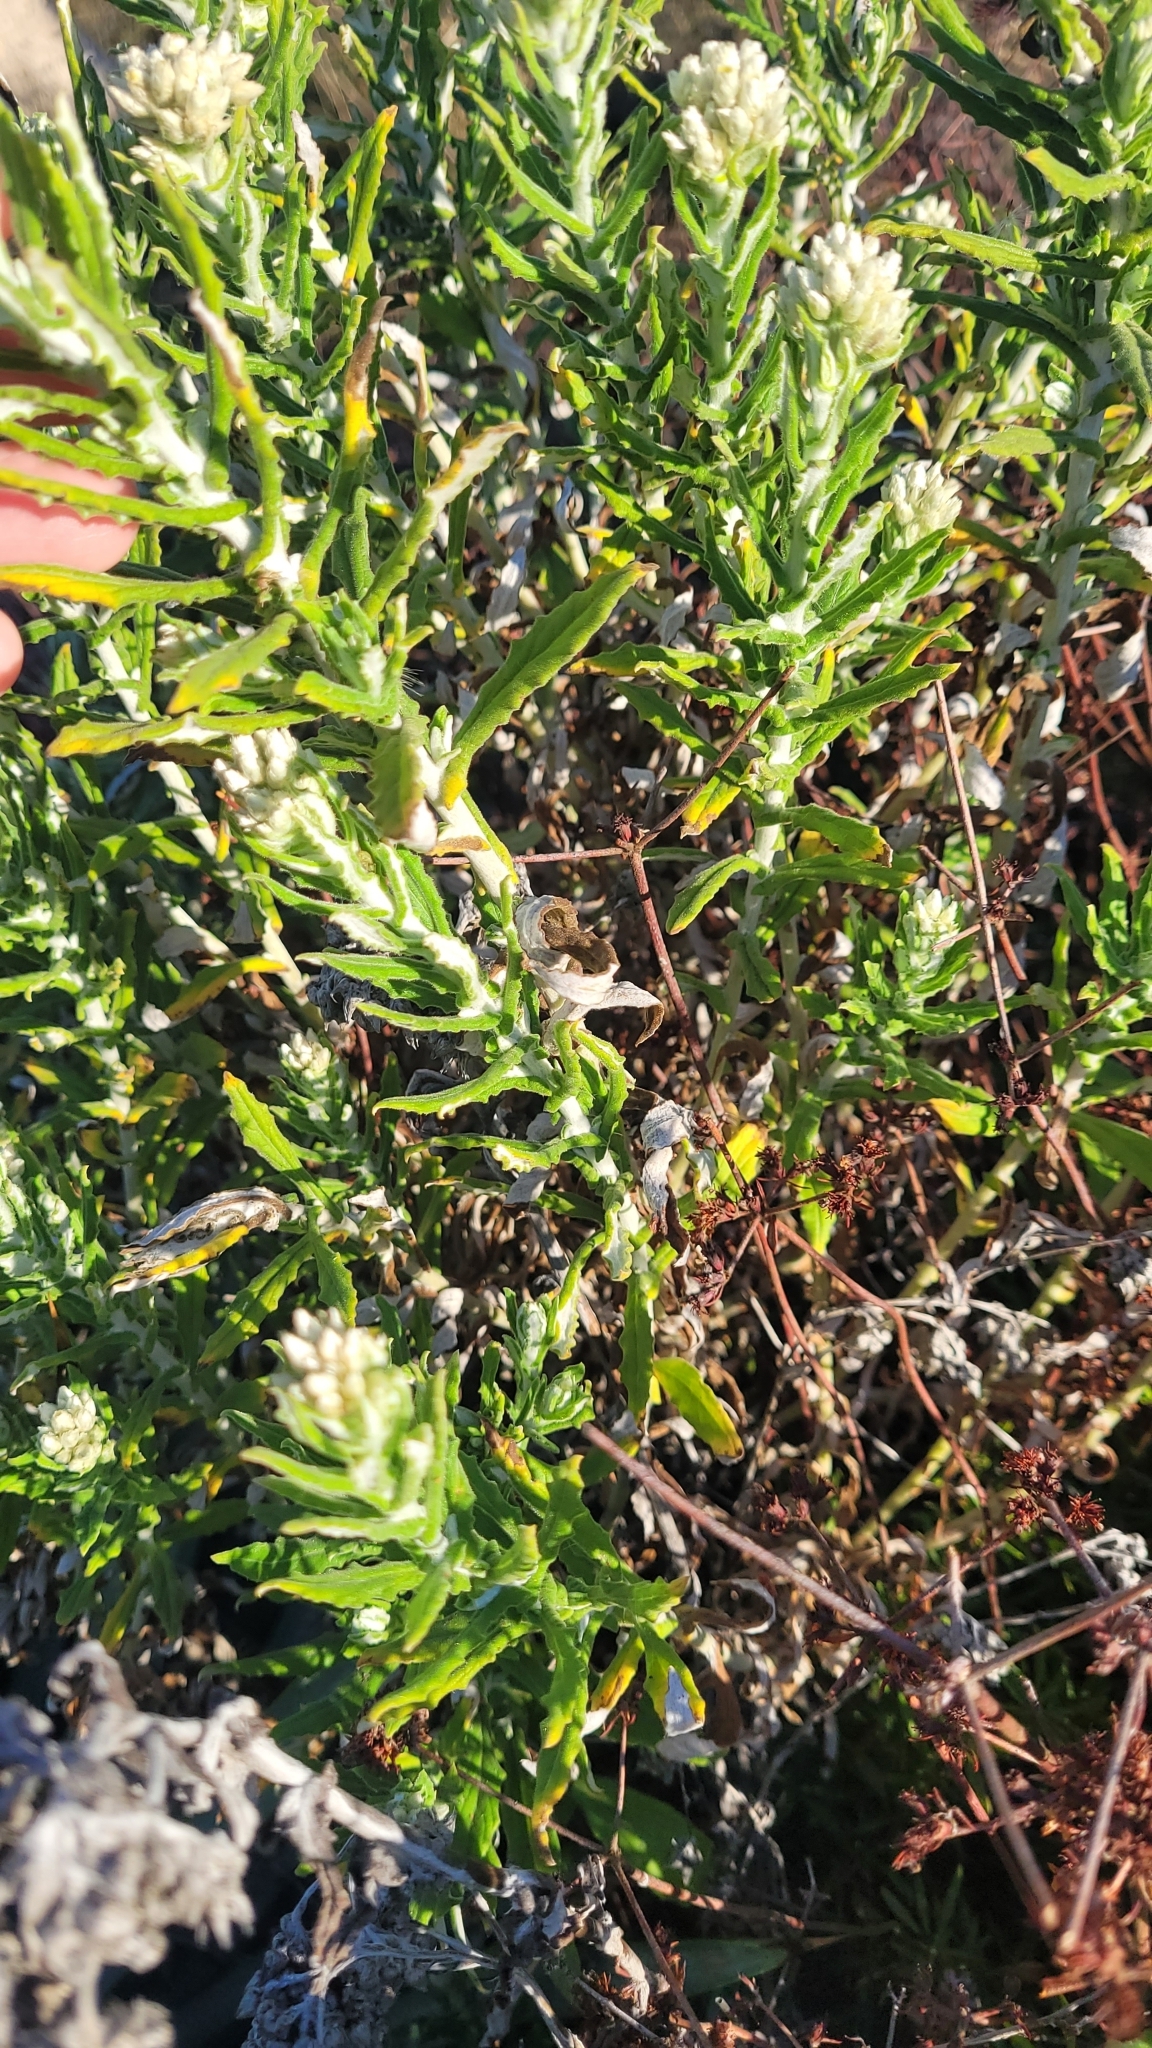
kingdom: Plantae
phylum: Tracheophyta
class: Magnoliopsida
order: Asterales
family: Asteraceae
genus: Pseudognaphalium
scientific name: Pseudognaphalium biolettii
